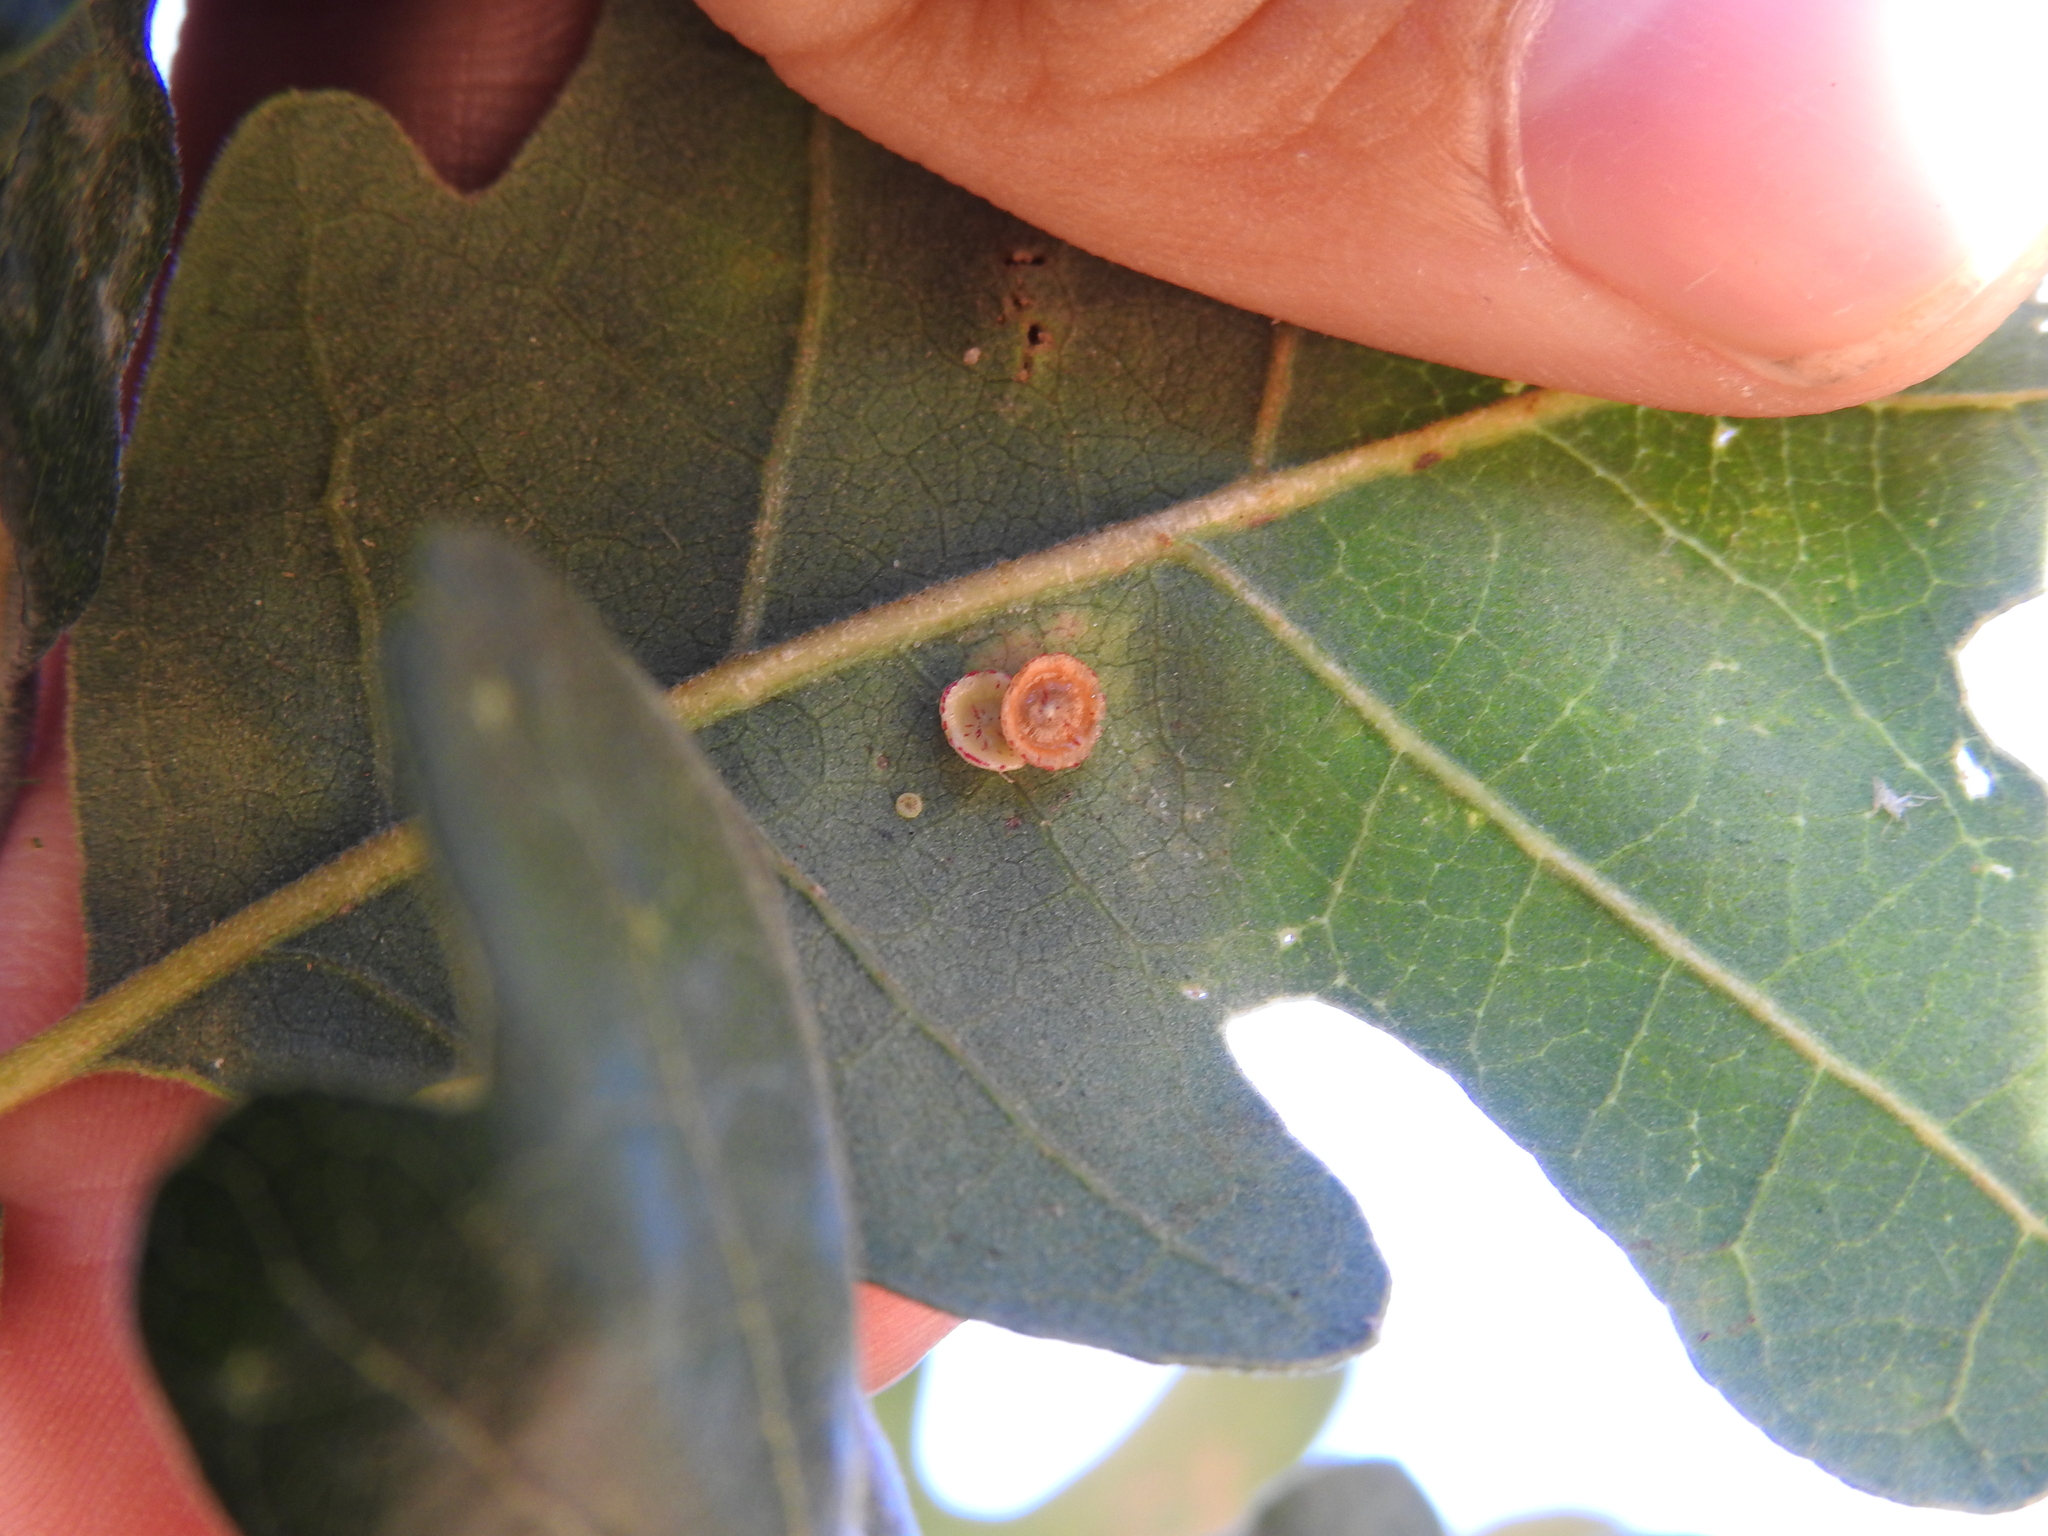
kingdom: Animalia
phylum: Arthropoda
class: Insecta
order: Hymenoptera
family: Cynipidae
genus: Andricus
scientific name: Andricus
